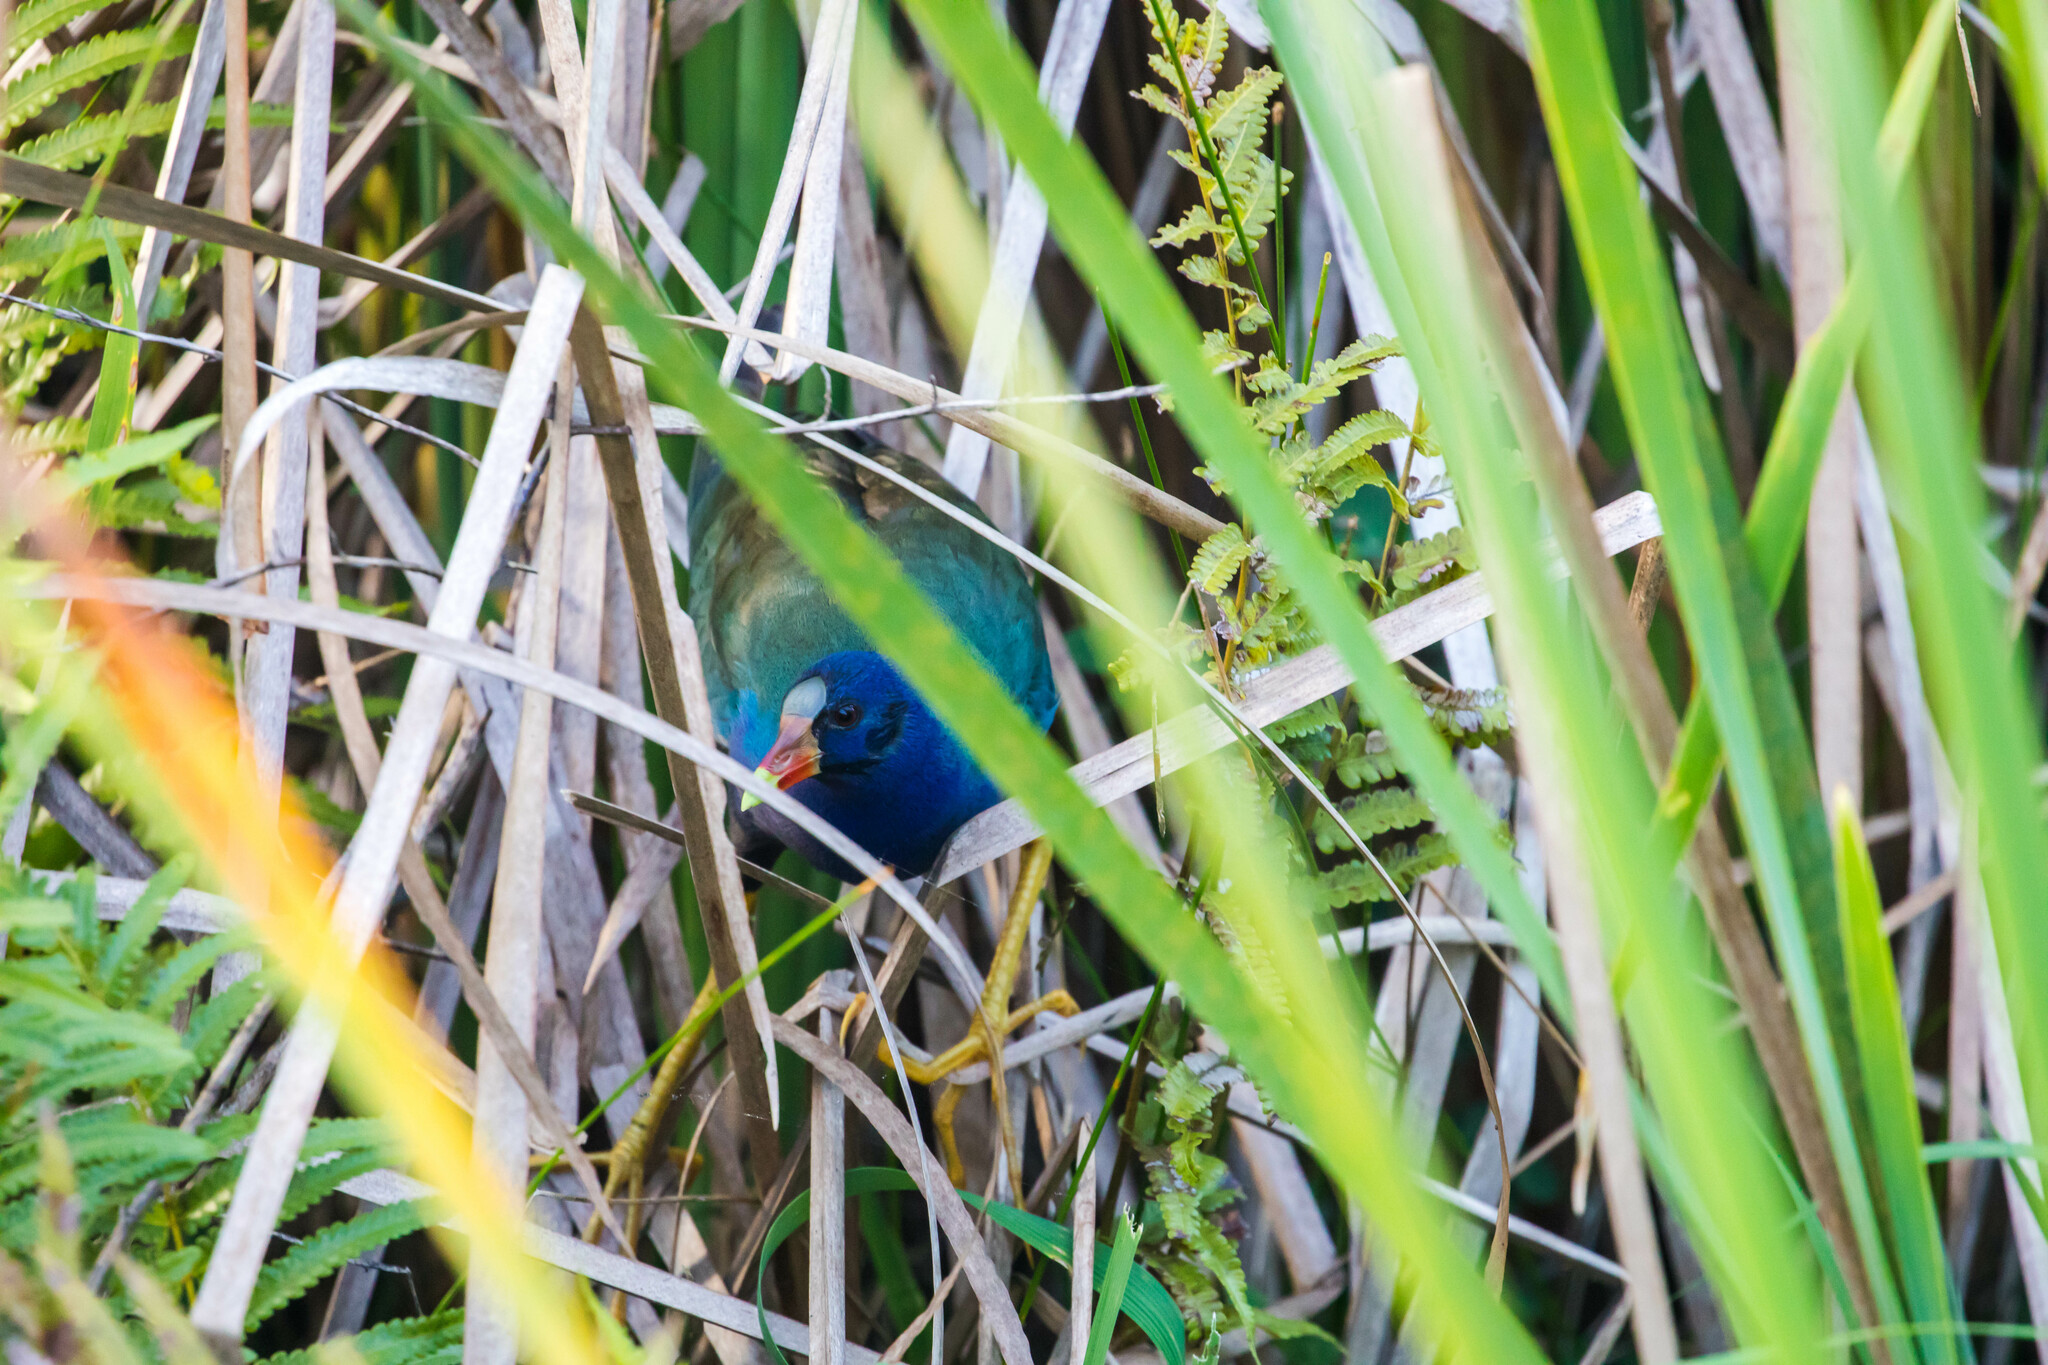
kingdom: Animalia
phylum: Chordata
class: Aves
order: Gruiformes
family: Rallidae
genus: Porphyrio
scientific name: Porphyrio martinica
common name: Purple gallinule
